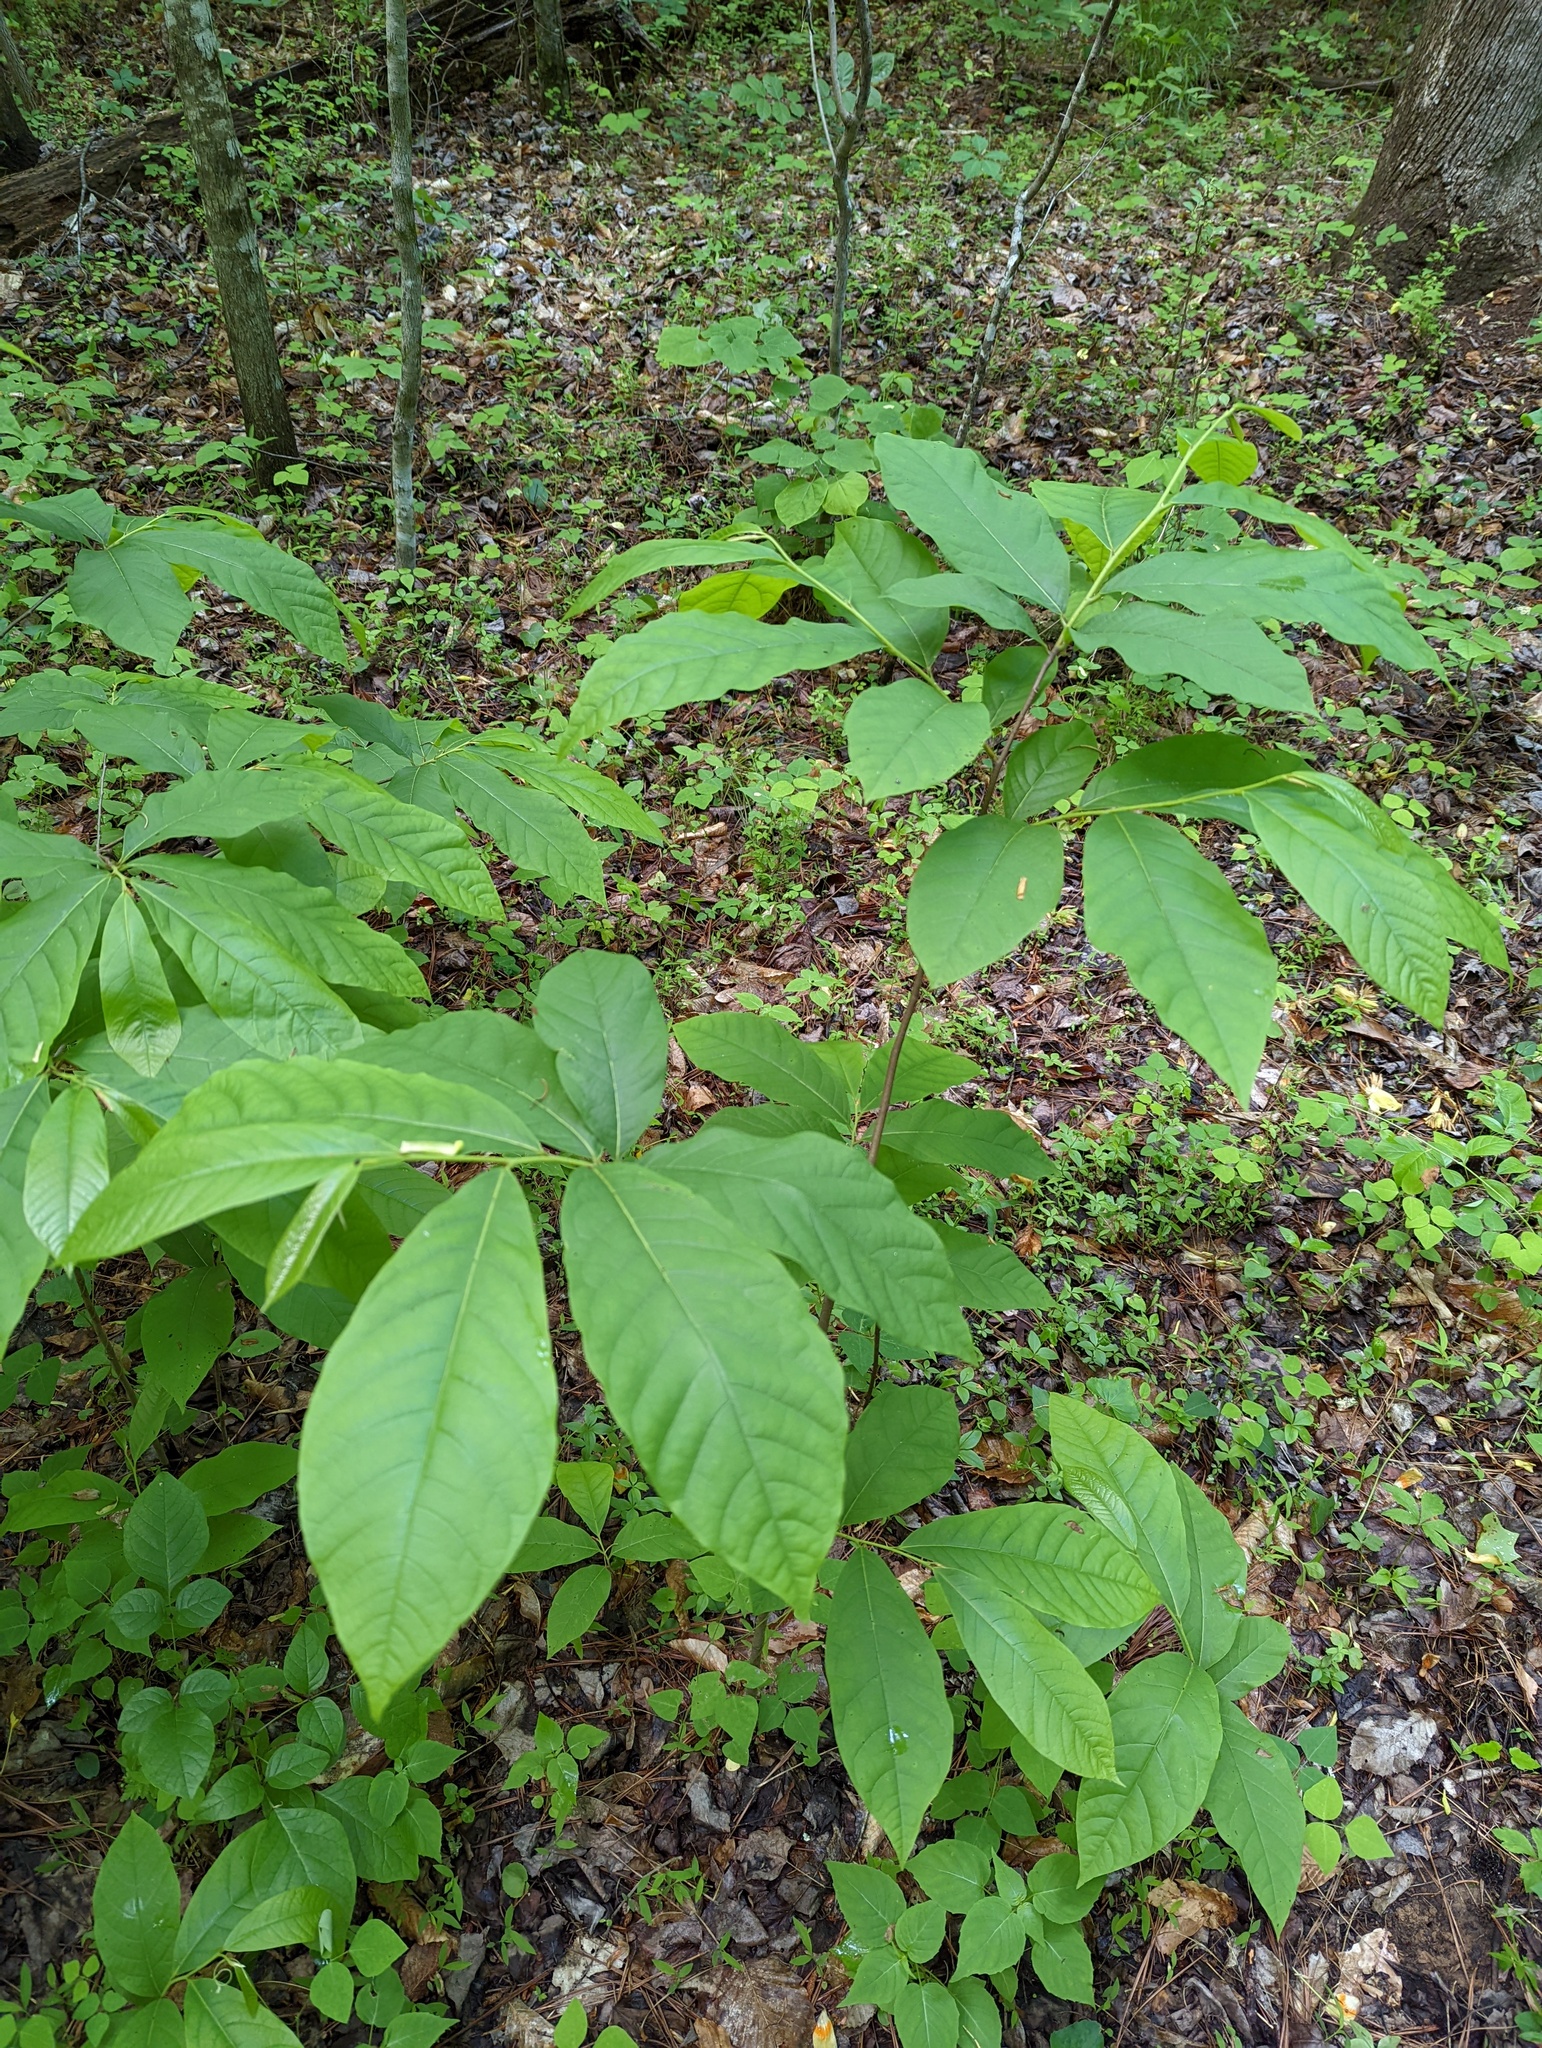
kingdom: Plantae
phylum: Tracheophyta
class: Magnoliopsida
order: Magnoliales
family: Annonaceae
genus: Asimina
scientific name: Asimina triloba
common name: Dog-banana
